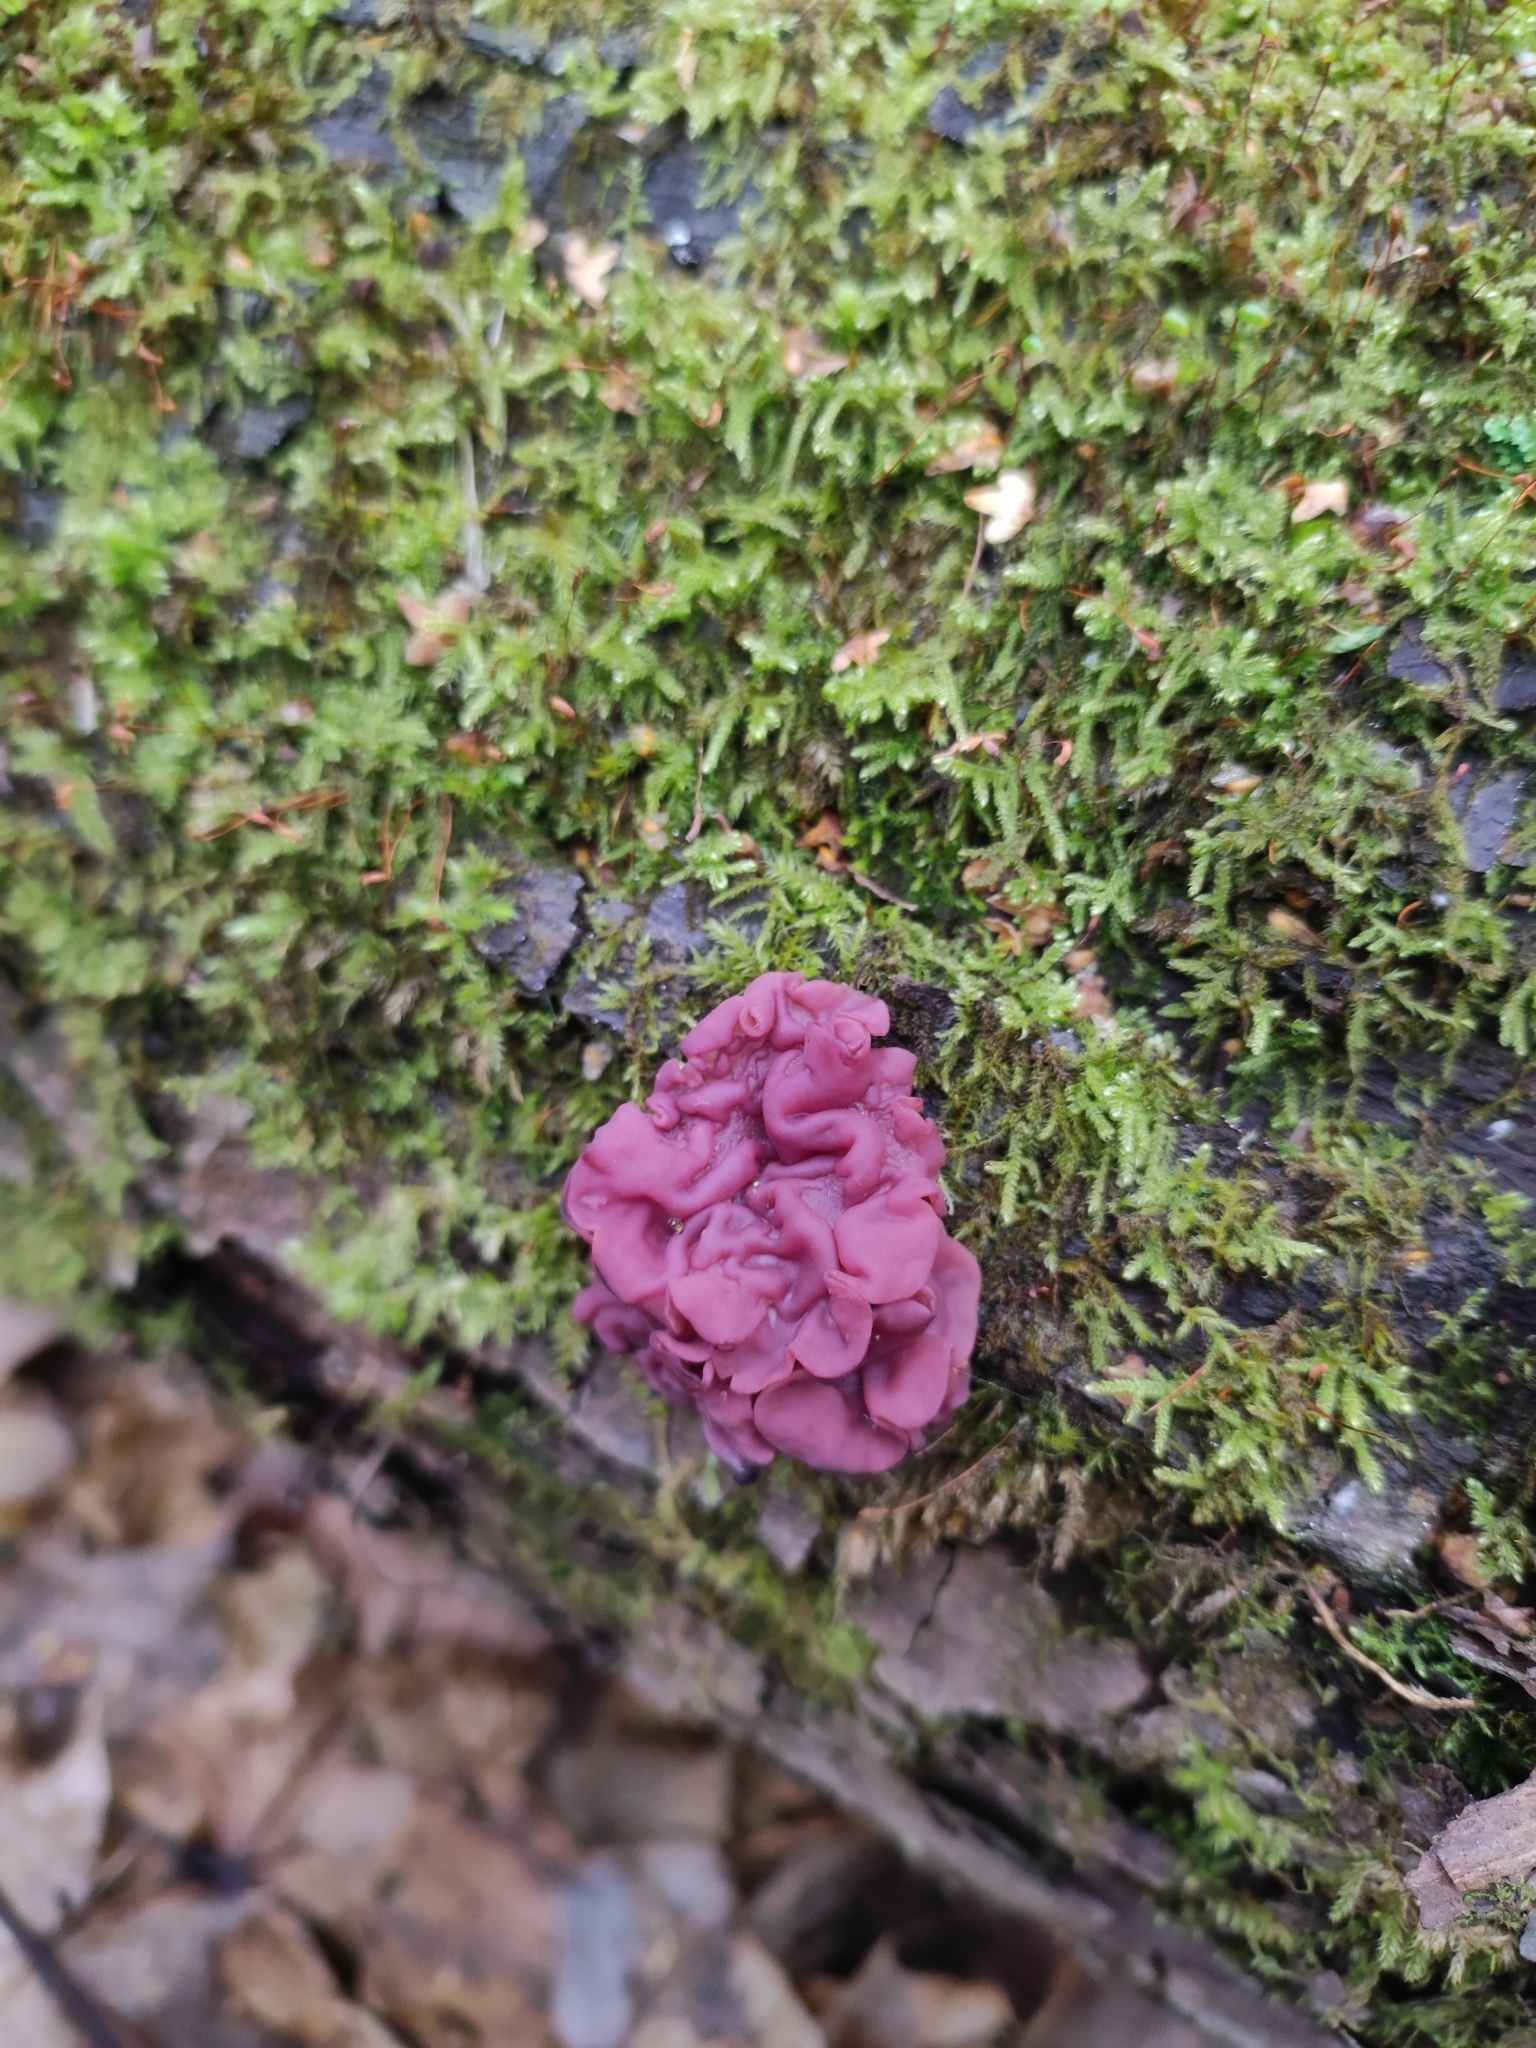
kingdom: Fungi
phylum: Ascomycota
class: Leotiomycetes
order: Helotiales
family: Gelatinodiscaceae
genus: Ascocoryne
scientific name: Ascocoryne sarcoides
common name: Purple jellydisc
